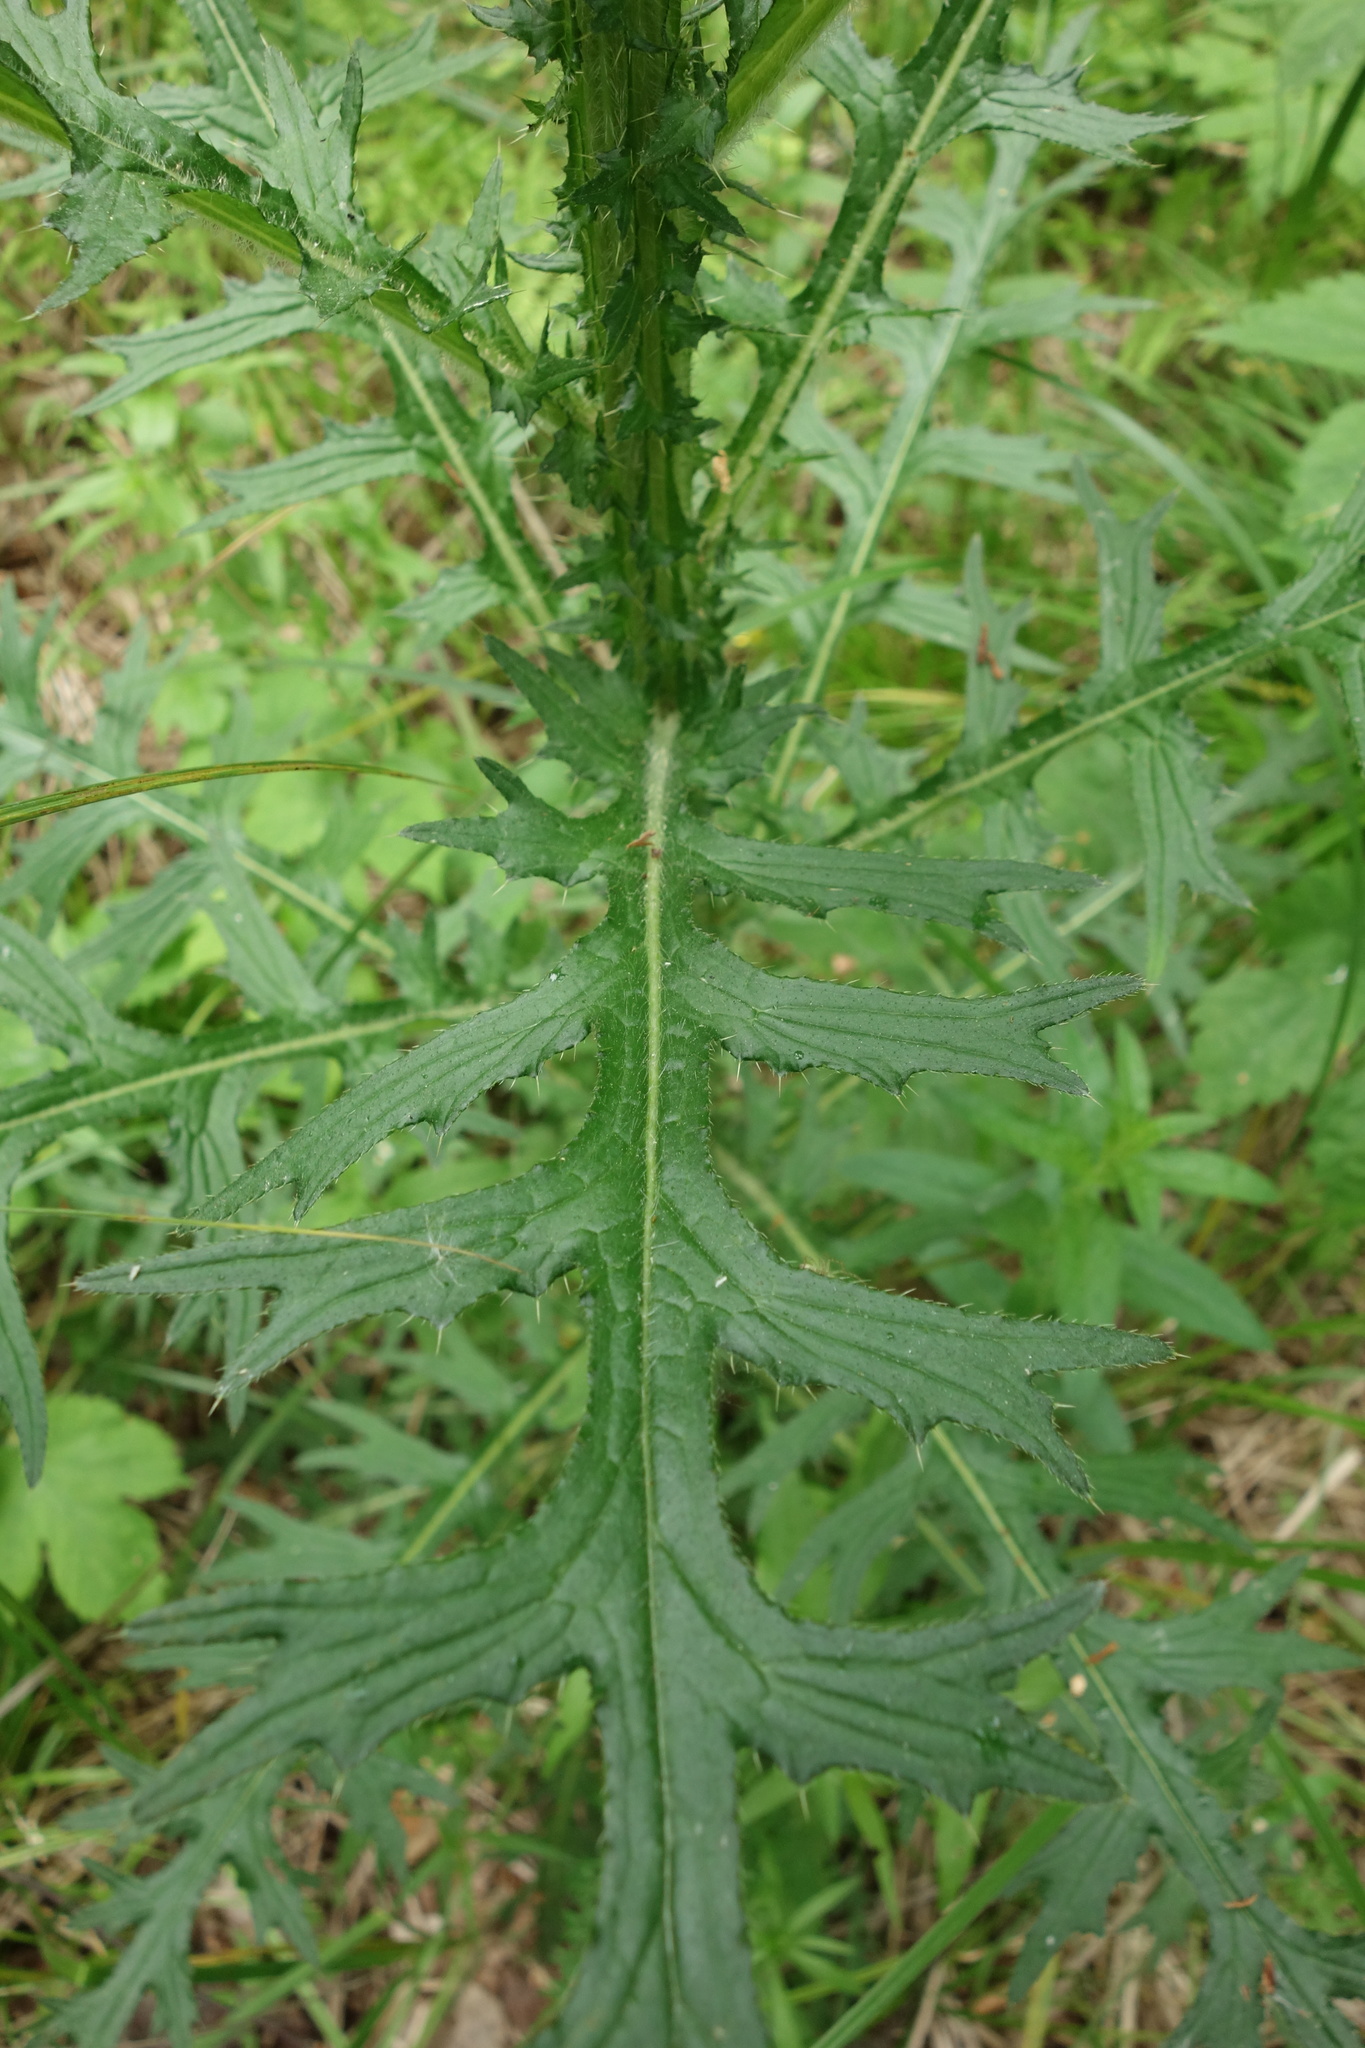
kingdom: Plantae
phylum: Tracheophyta
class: Magnoliopsida
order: Asterales
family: Asteraceae
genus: Cirsium
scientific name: Cirsium palustre
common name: Marsh thistle
